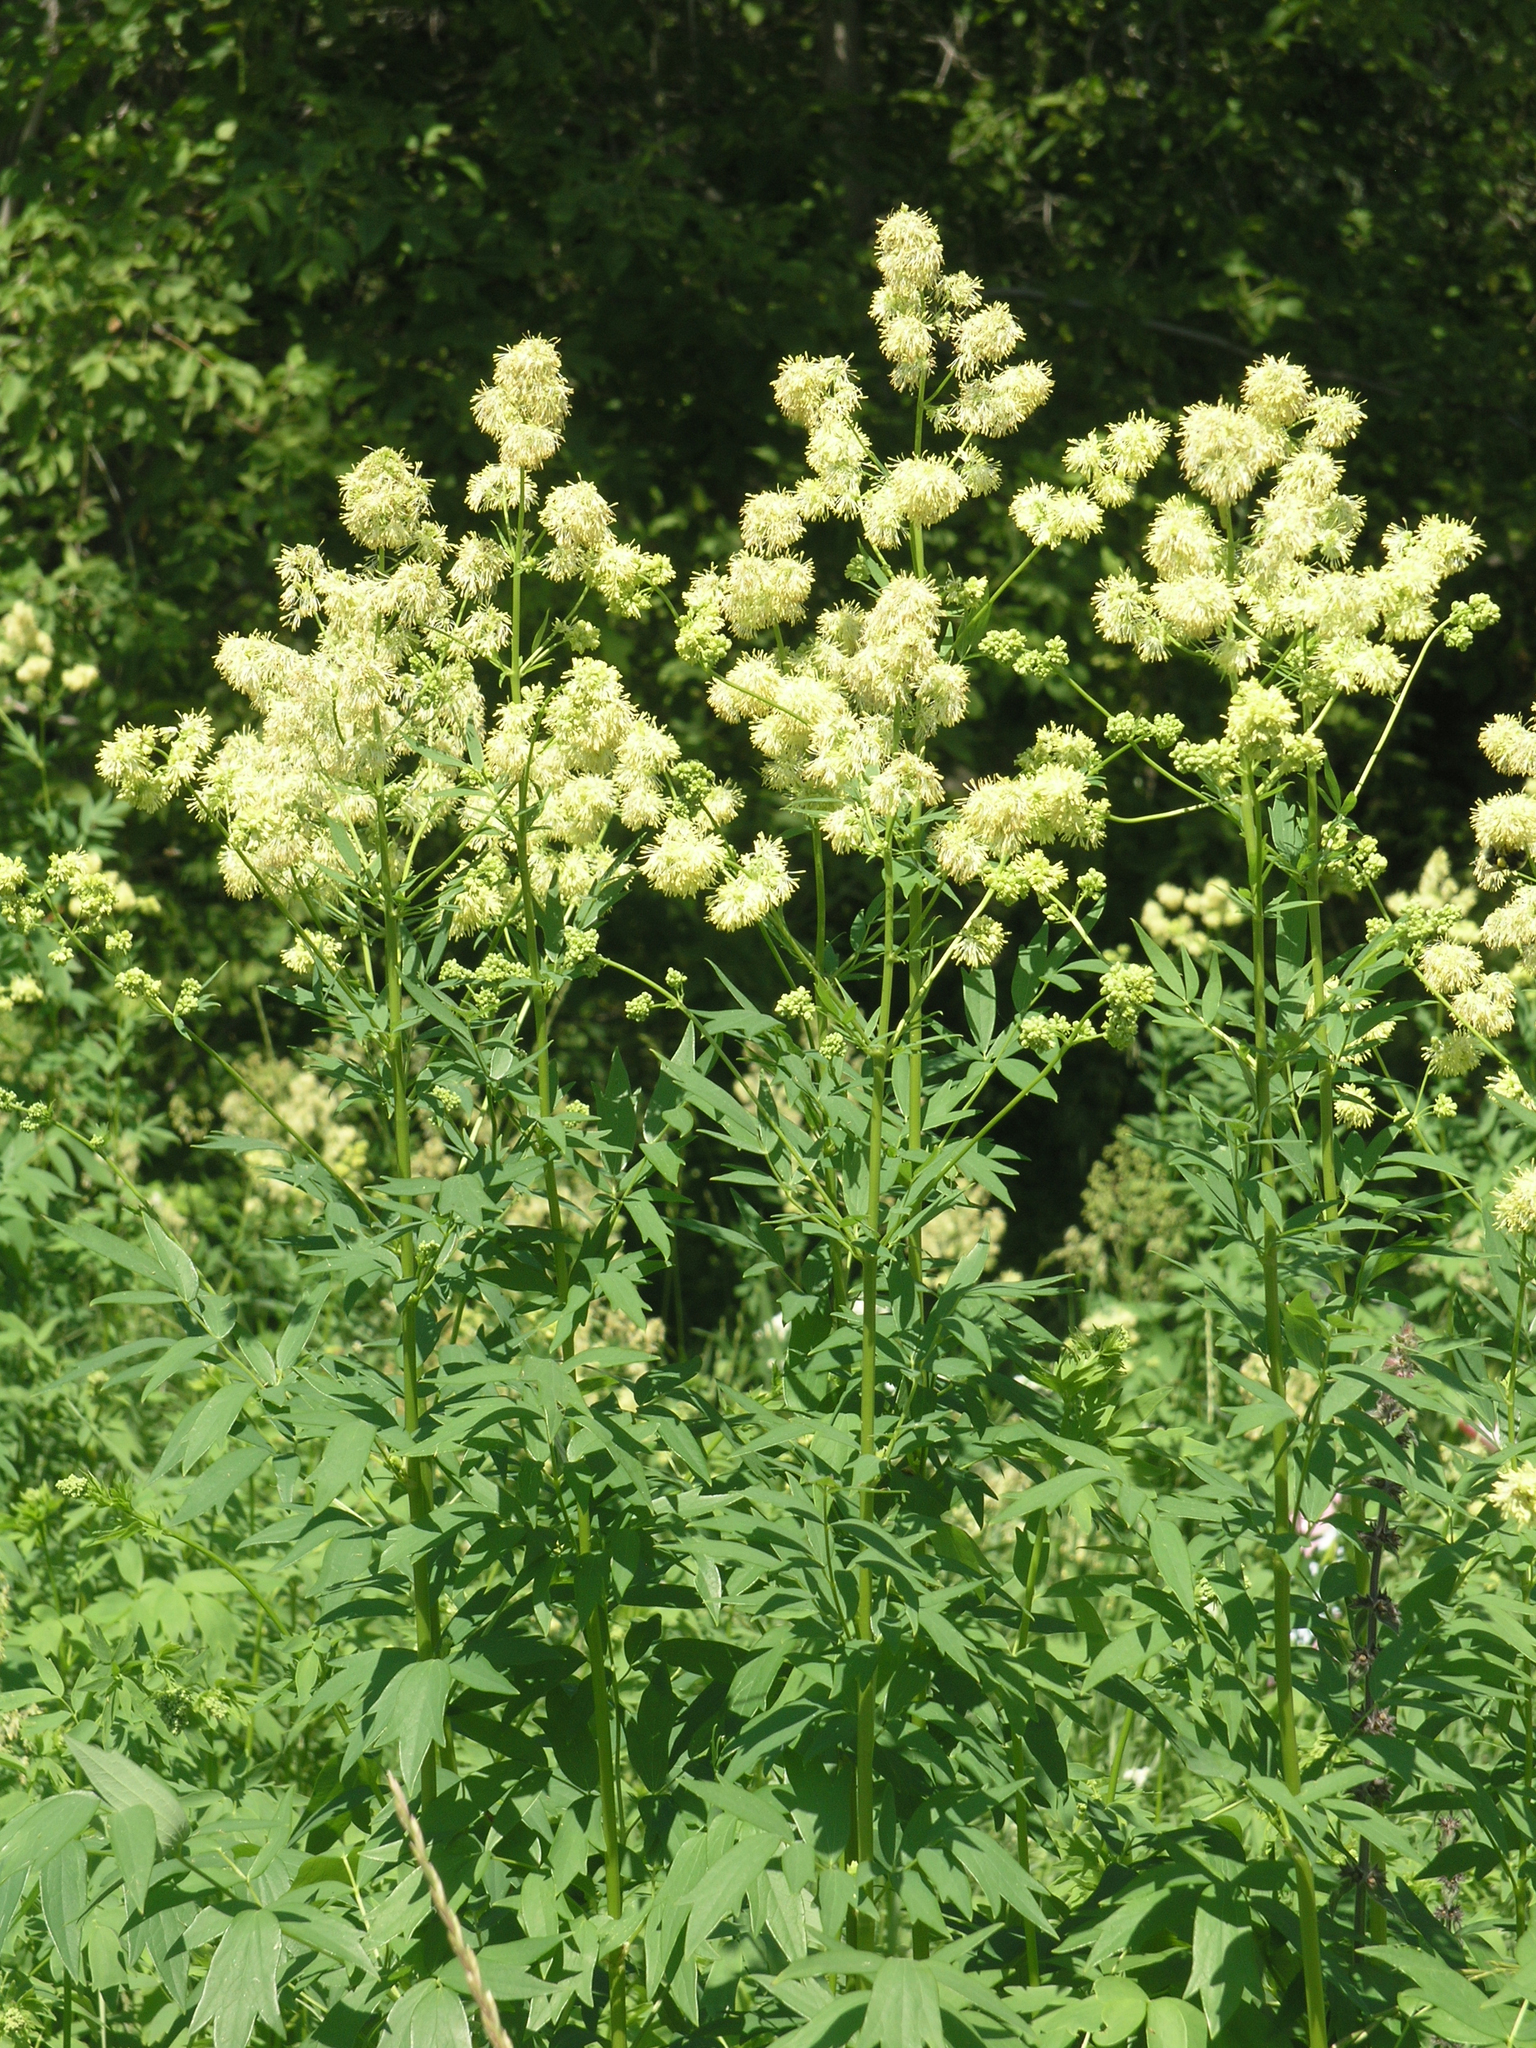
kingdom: Plantae
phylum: Tracheophyta
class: Magnoliopsida
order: Ranunculales
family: Ranunculaceae
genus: Thalictrum
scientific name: Thalictrum minus
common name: Lesser meadow-rue
